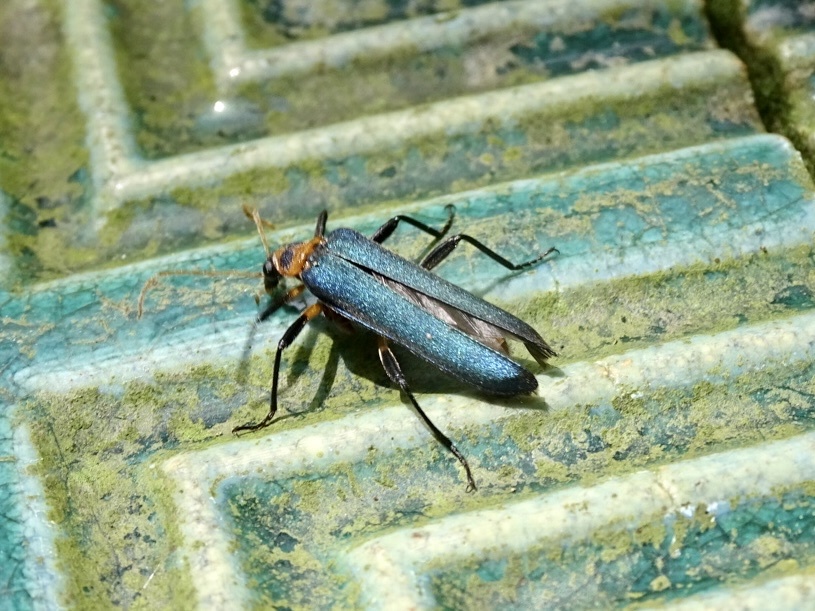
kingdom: Animalia
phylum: Arthropoda
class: Insecta
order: Coleoptera
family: Prionoceridae
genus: Idgia
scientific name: Idgia
